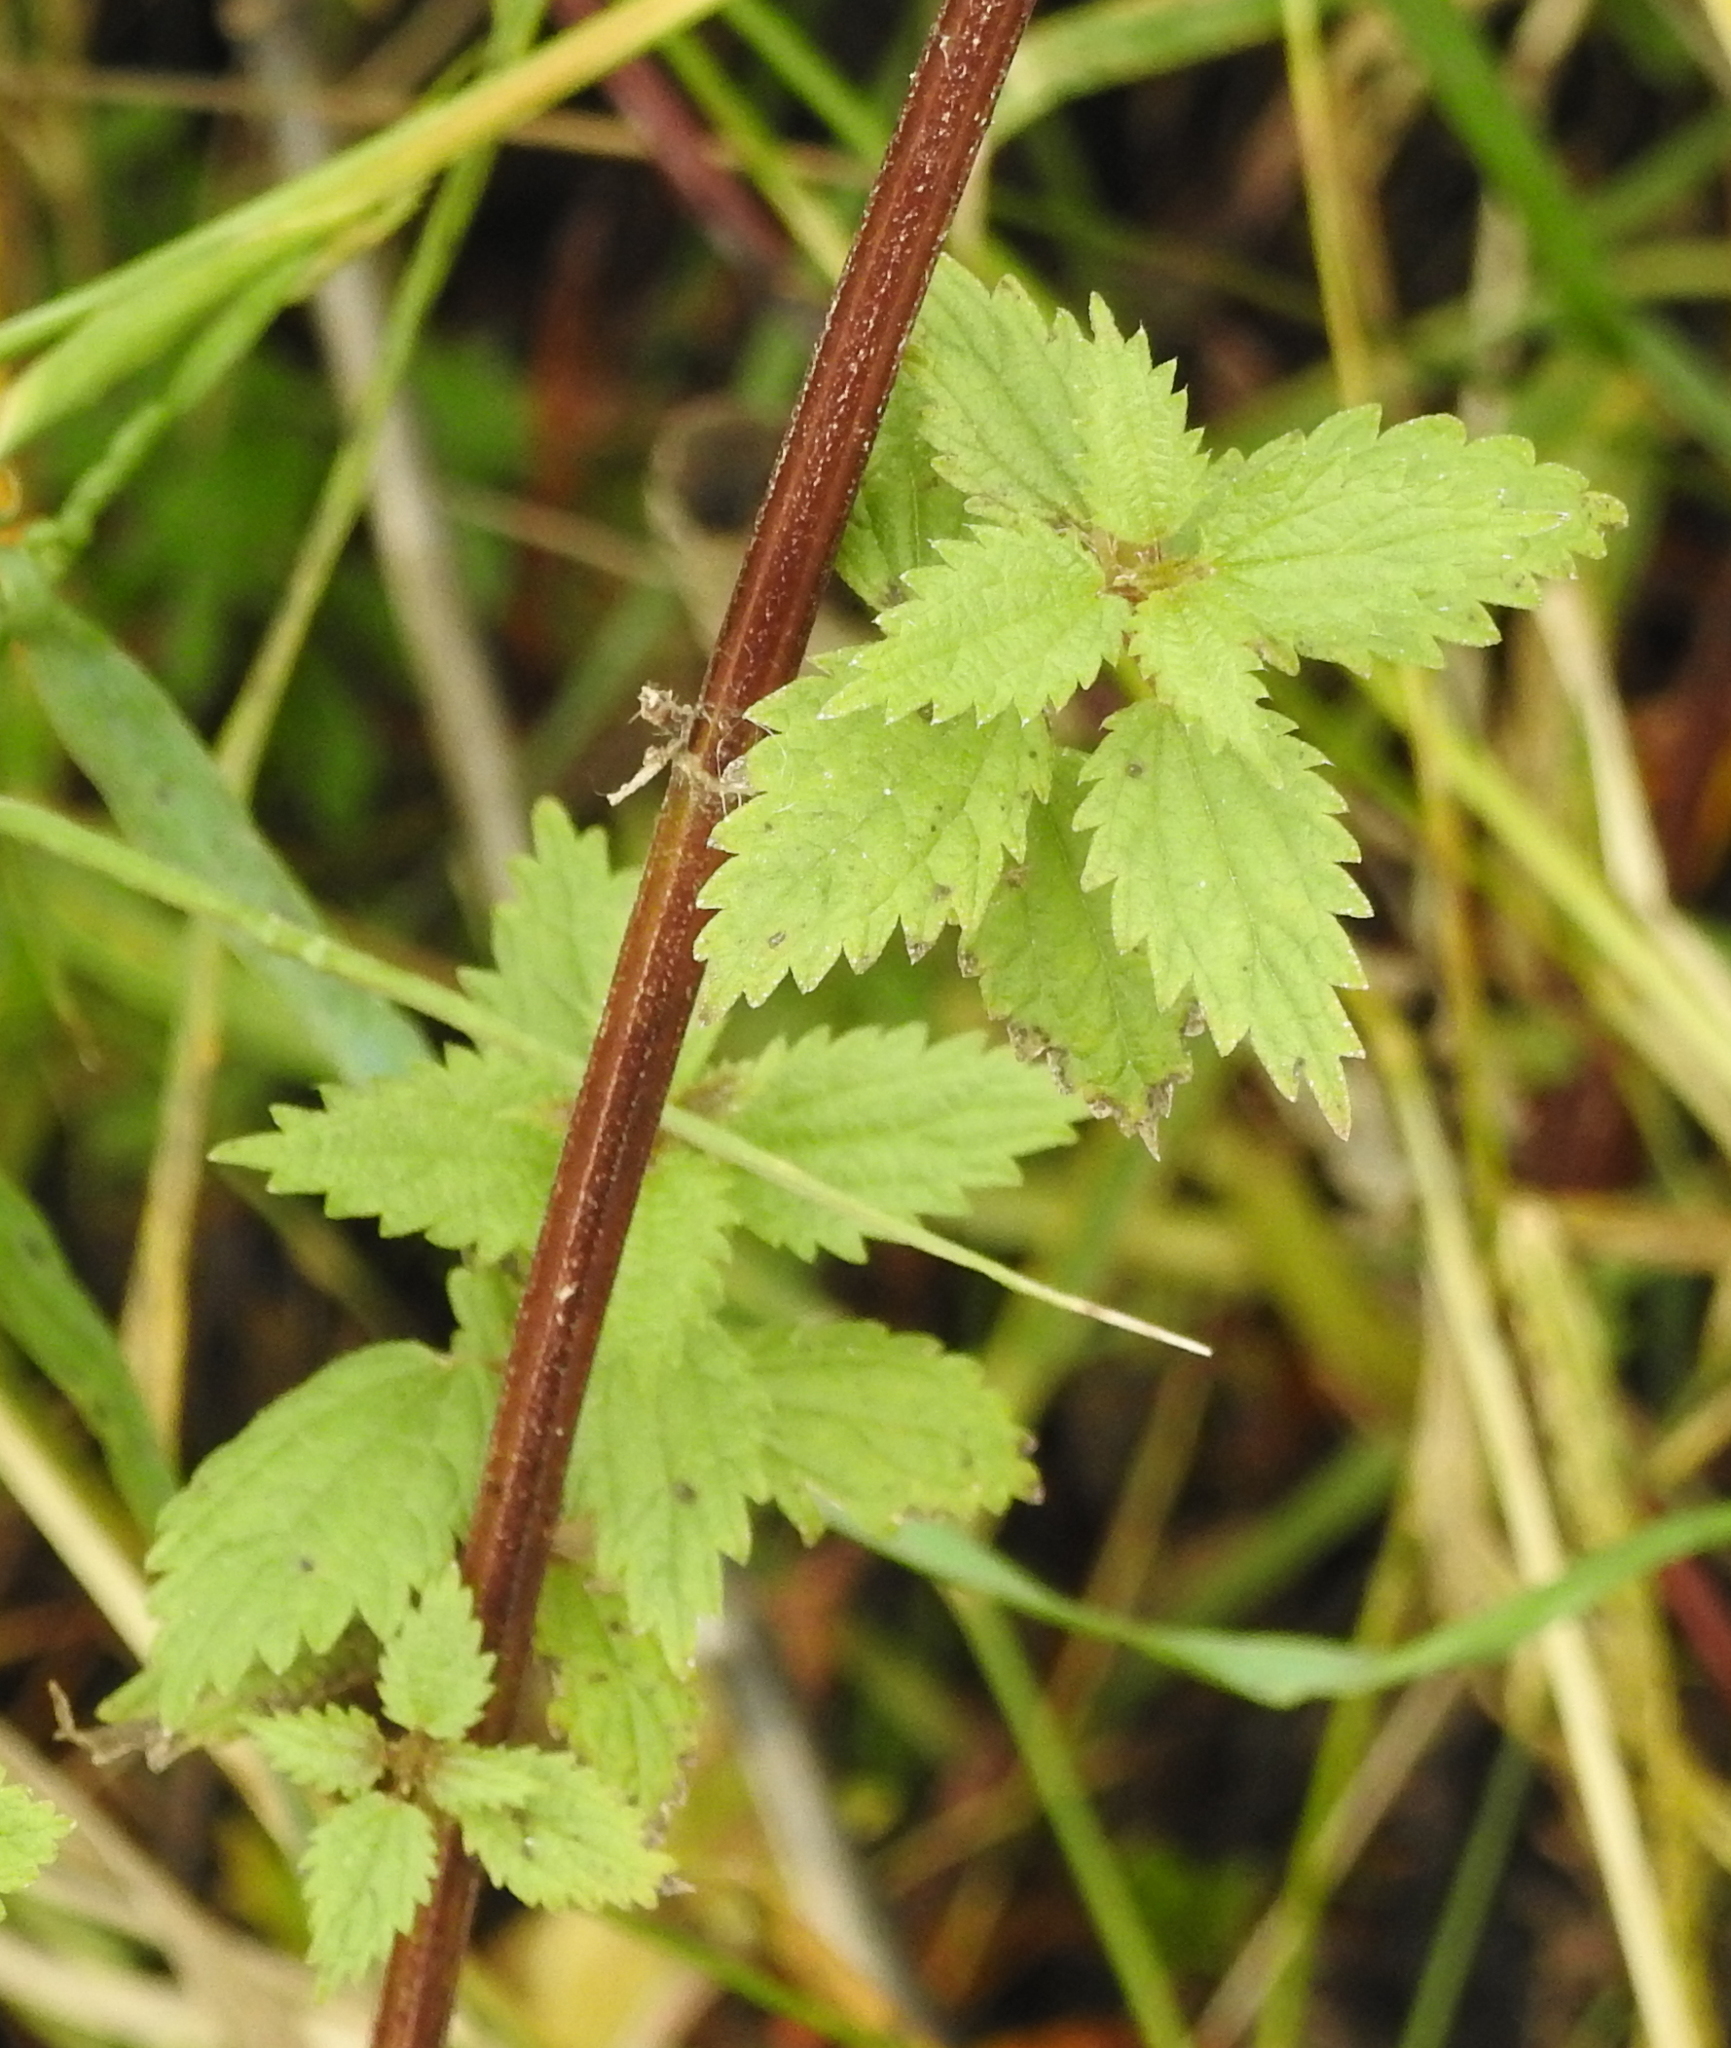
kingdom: Plantae
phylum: Tracheophyta
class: Magnoliopsida
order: Rosales
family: Urticaceae
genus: Urtica
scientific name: Urtica dioica
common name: Common nettle
